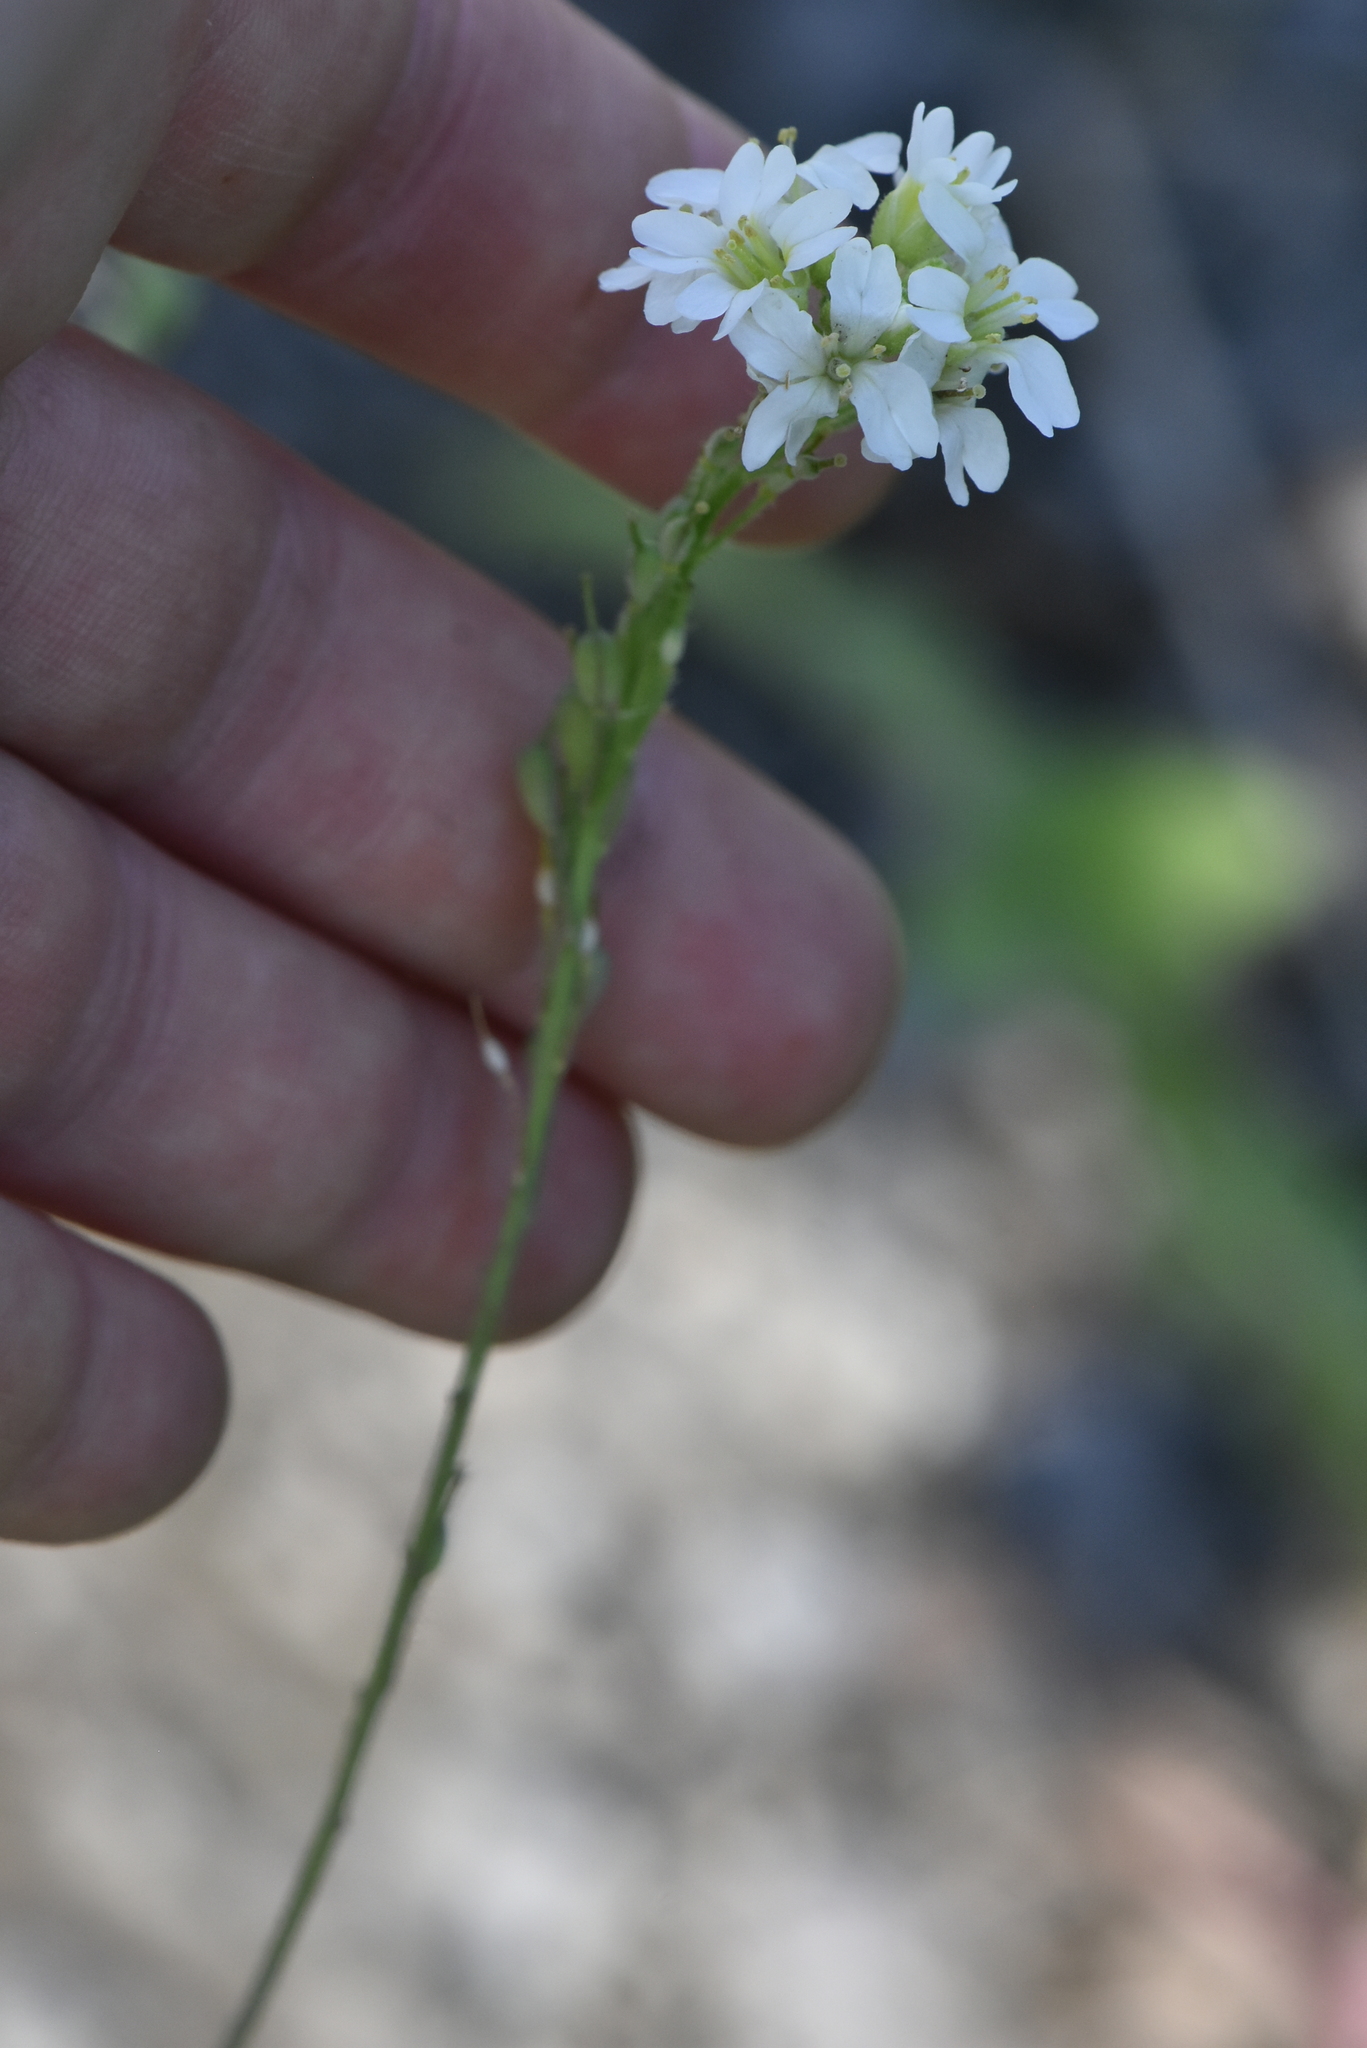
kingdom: Plantae
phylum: Tracheophyta
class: Magnoliopsida
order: Brassicales
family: Brassicaceae
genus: Berteroa
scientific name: Berteroa incana
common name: Hoary alison
